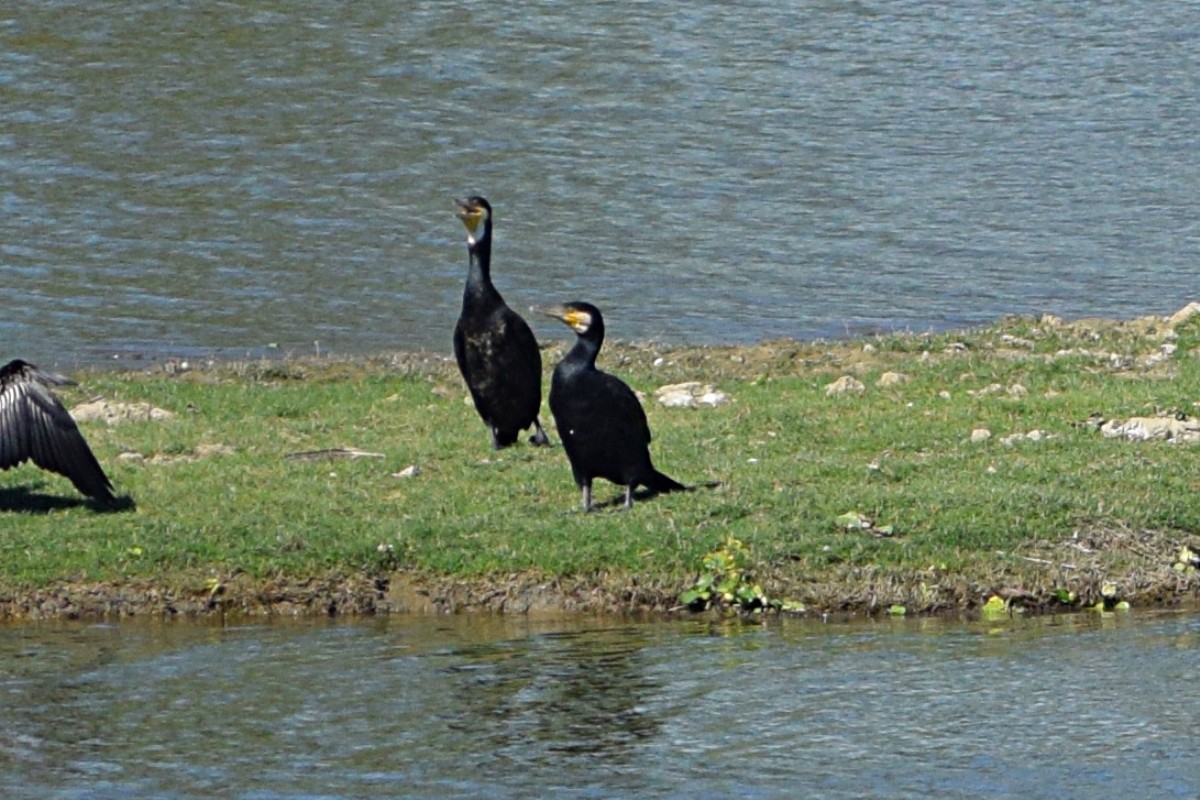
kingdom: Animalia
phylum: Chordata
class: Aves
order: Suliformes
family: Phalacrocoracidae
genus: Phalacrocorax
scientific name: Phalacrocorax carbo
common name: Great cormorant
